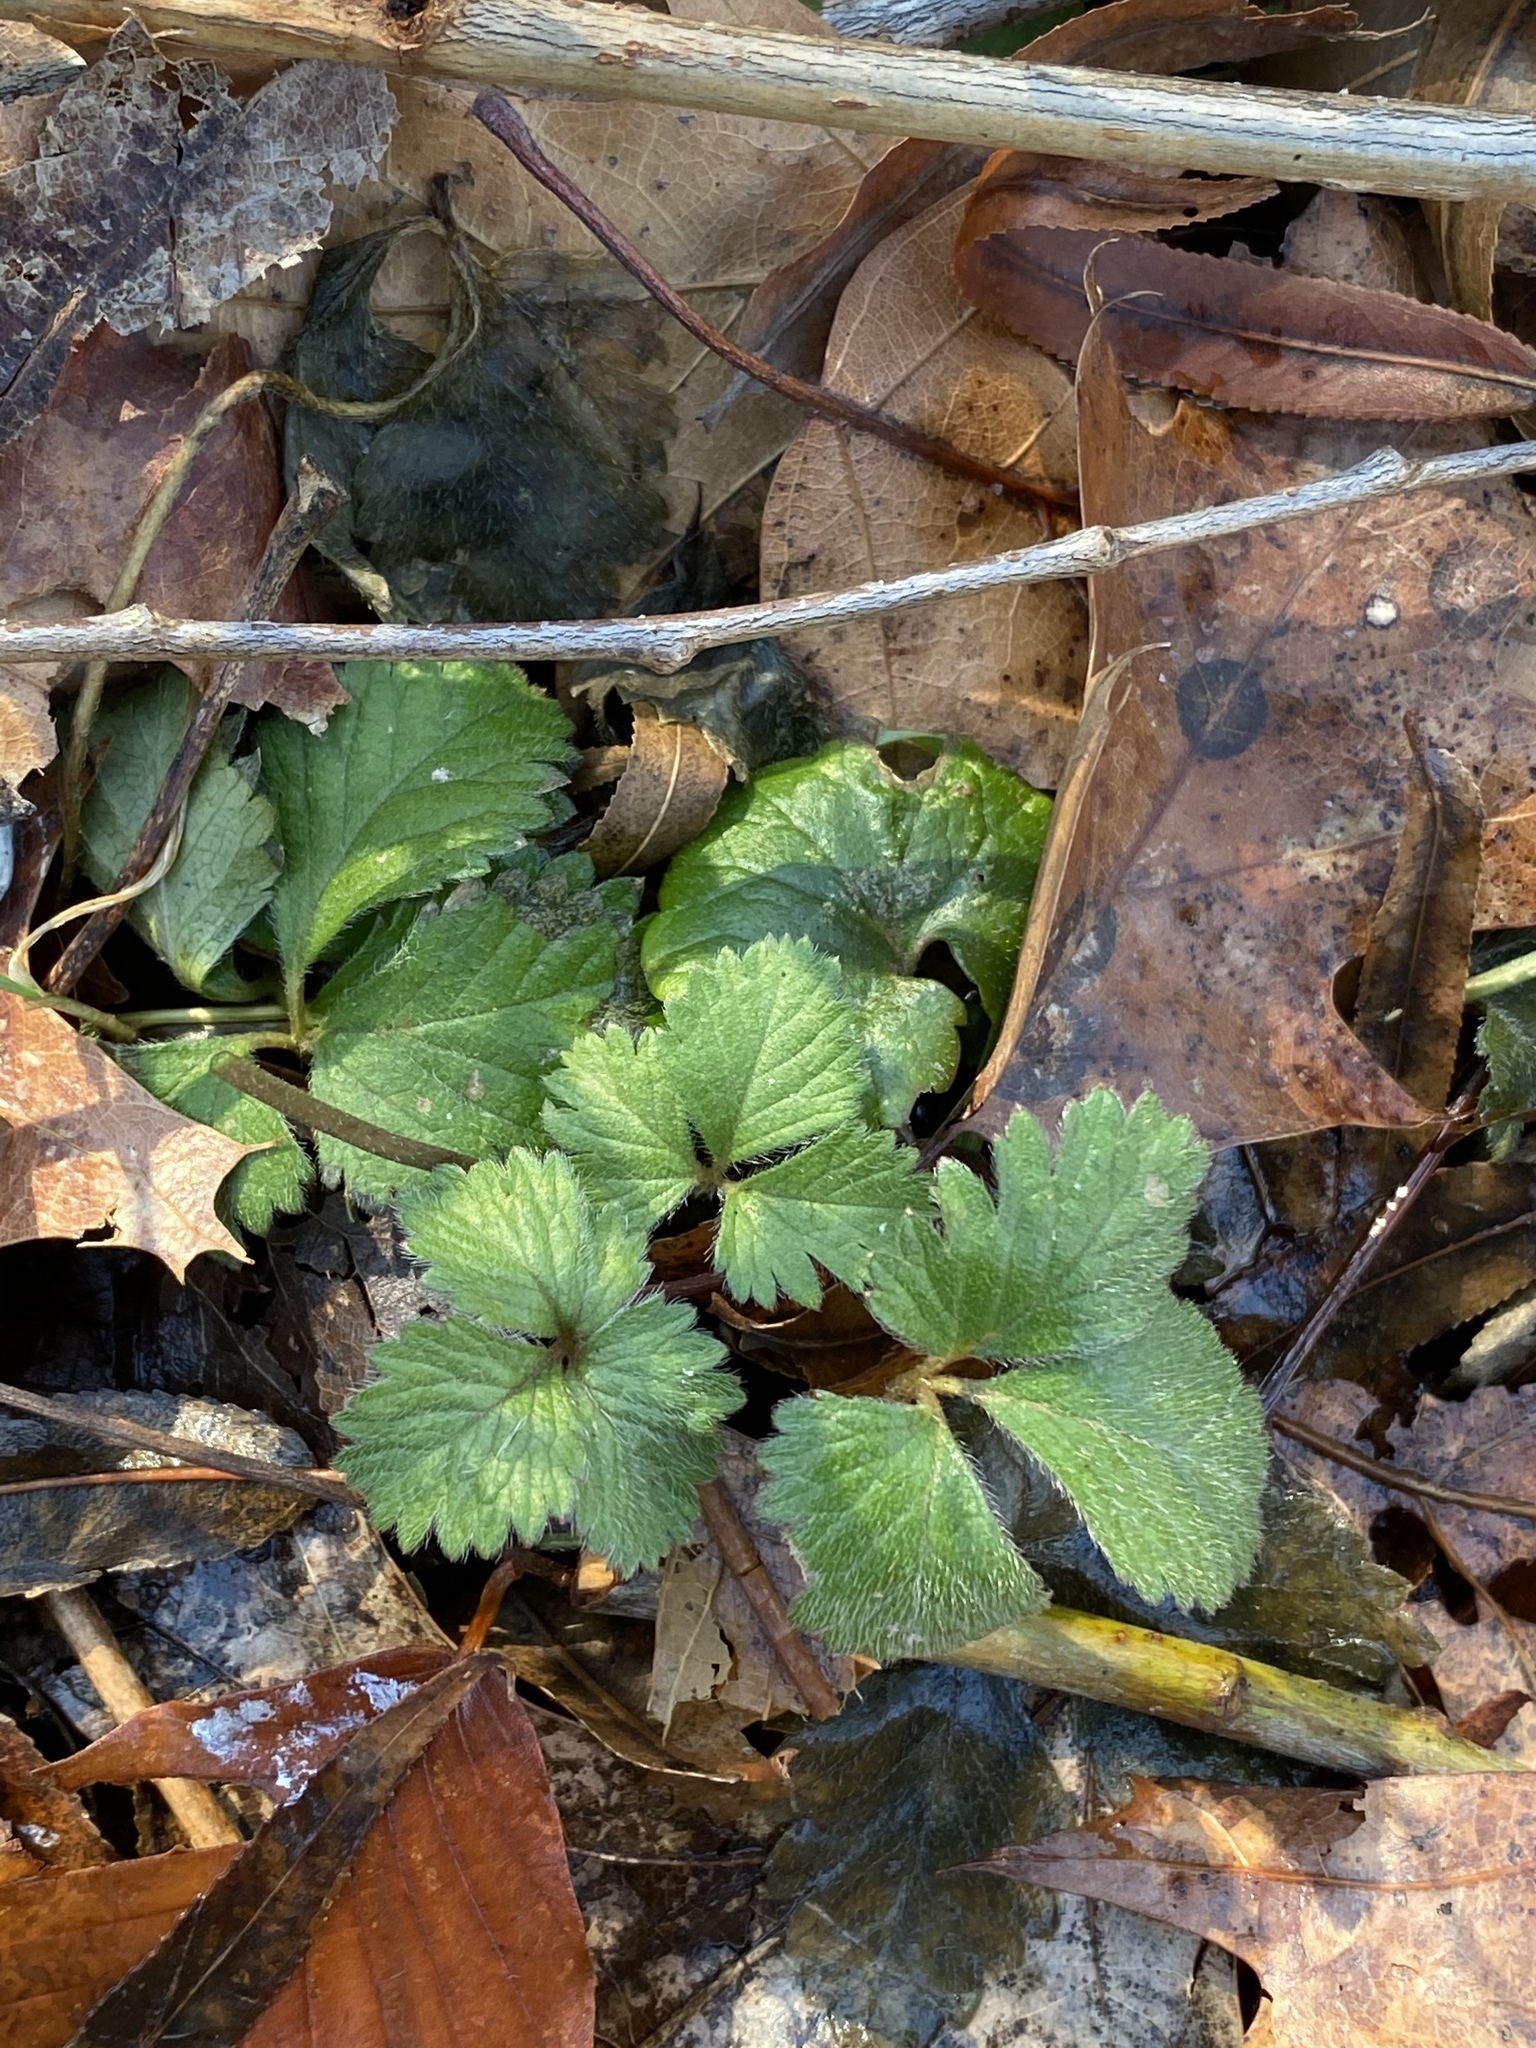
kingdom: Plantae
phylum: Tracheophyta
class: Magnoliopsida
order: Rosales
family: Rosaceae
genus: Potentilla
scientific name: Potentilla indica
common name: Yellow-flowered strawberry
